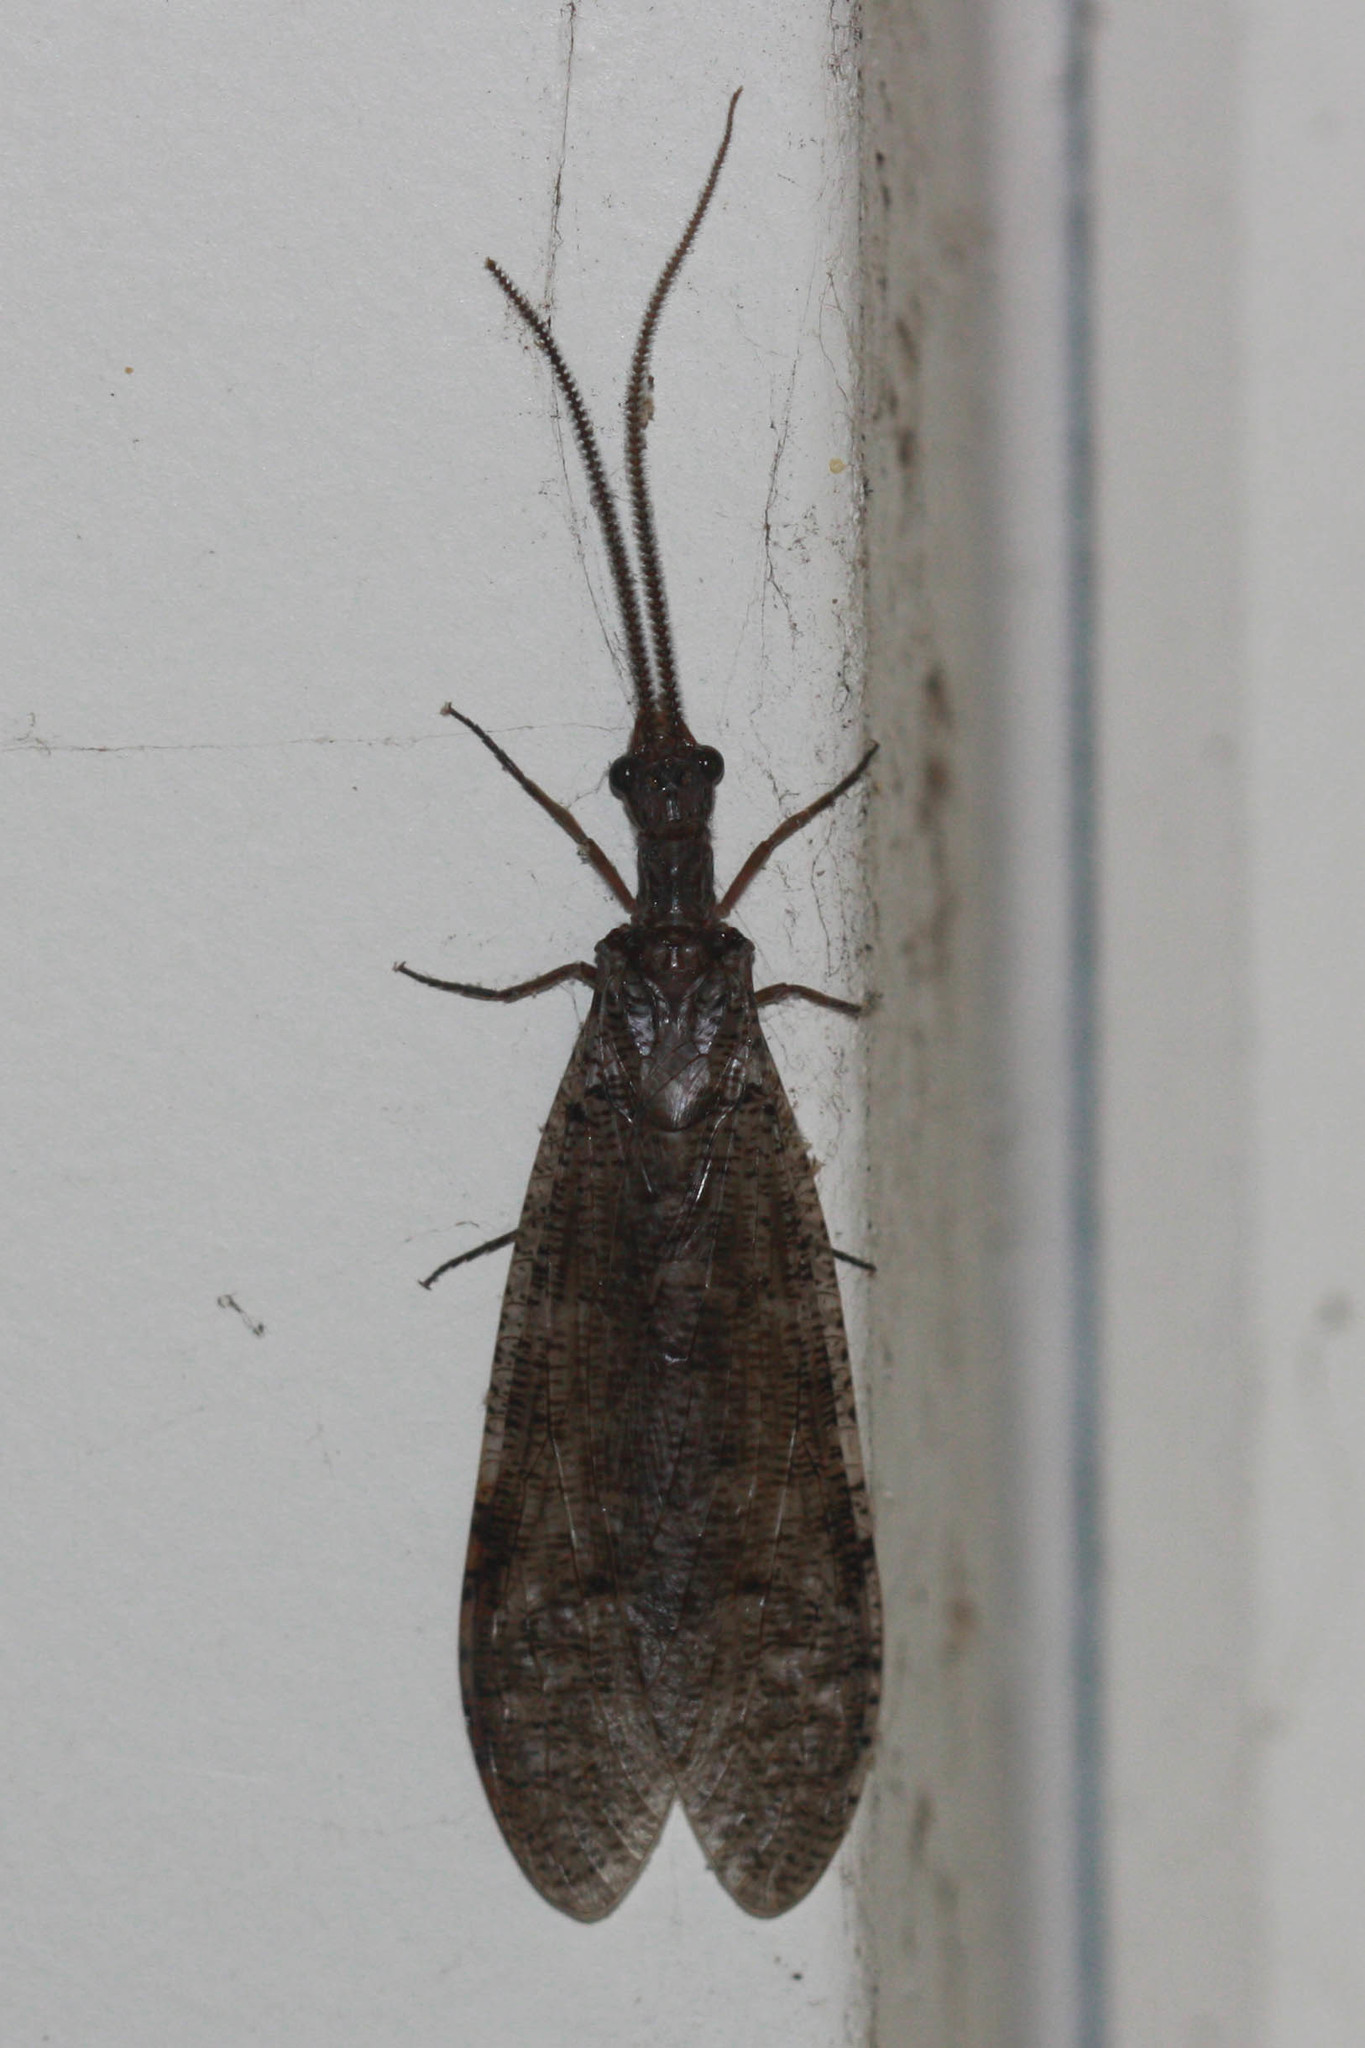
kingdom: Animalia
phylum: Arthropoda
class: Insecta
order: Megaloptera
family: Corydalidae
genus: Neohermes
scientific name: Neohermes filicornis
